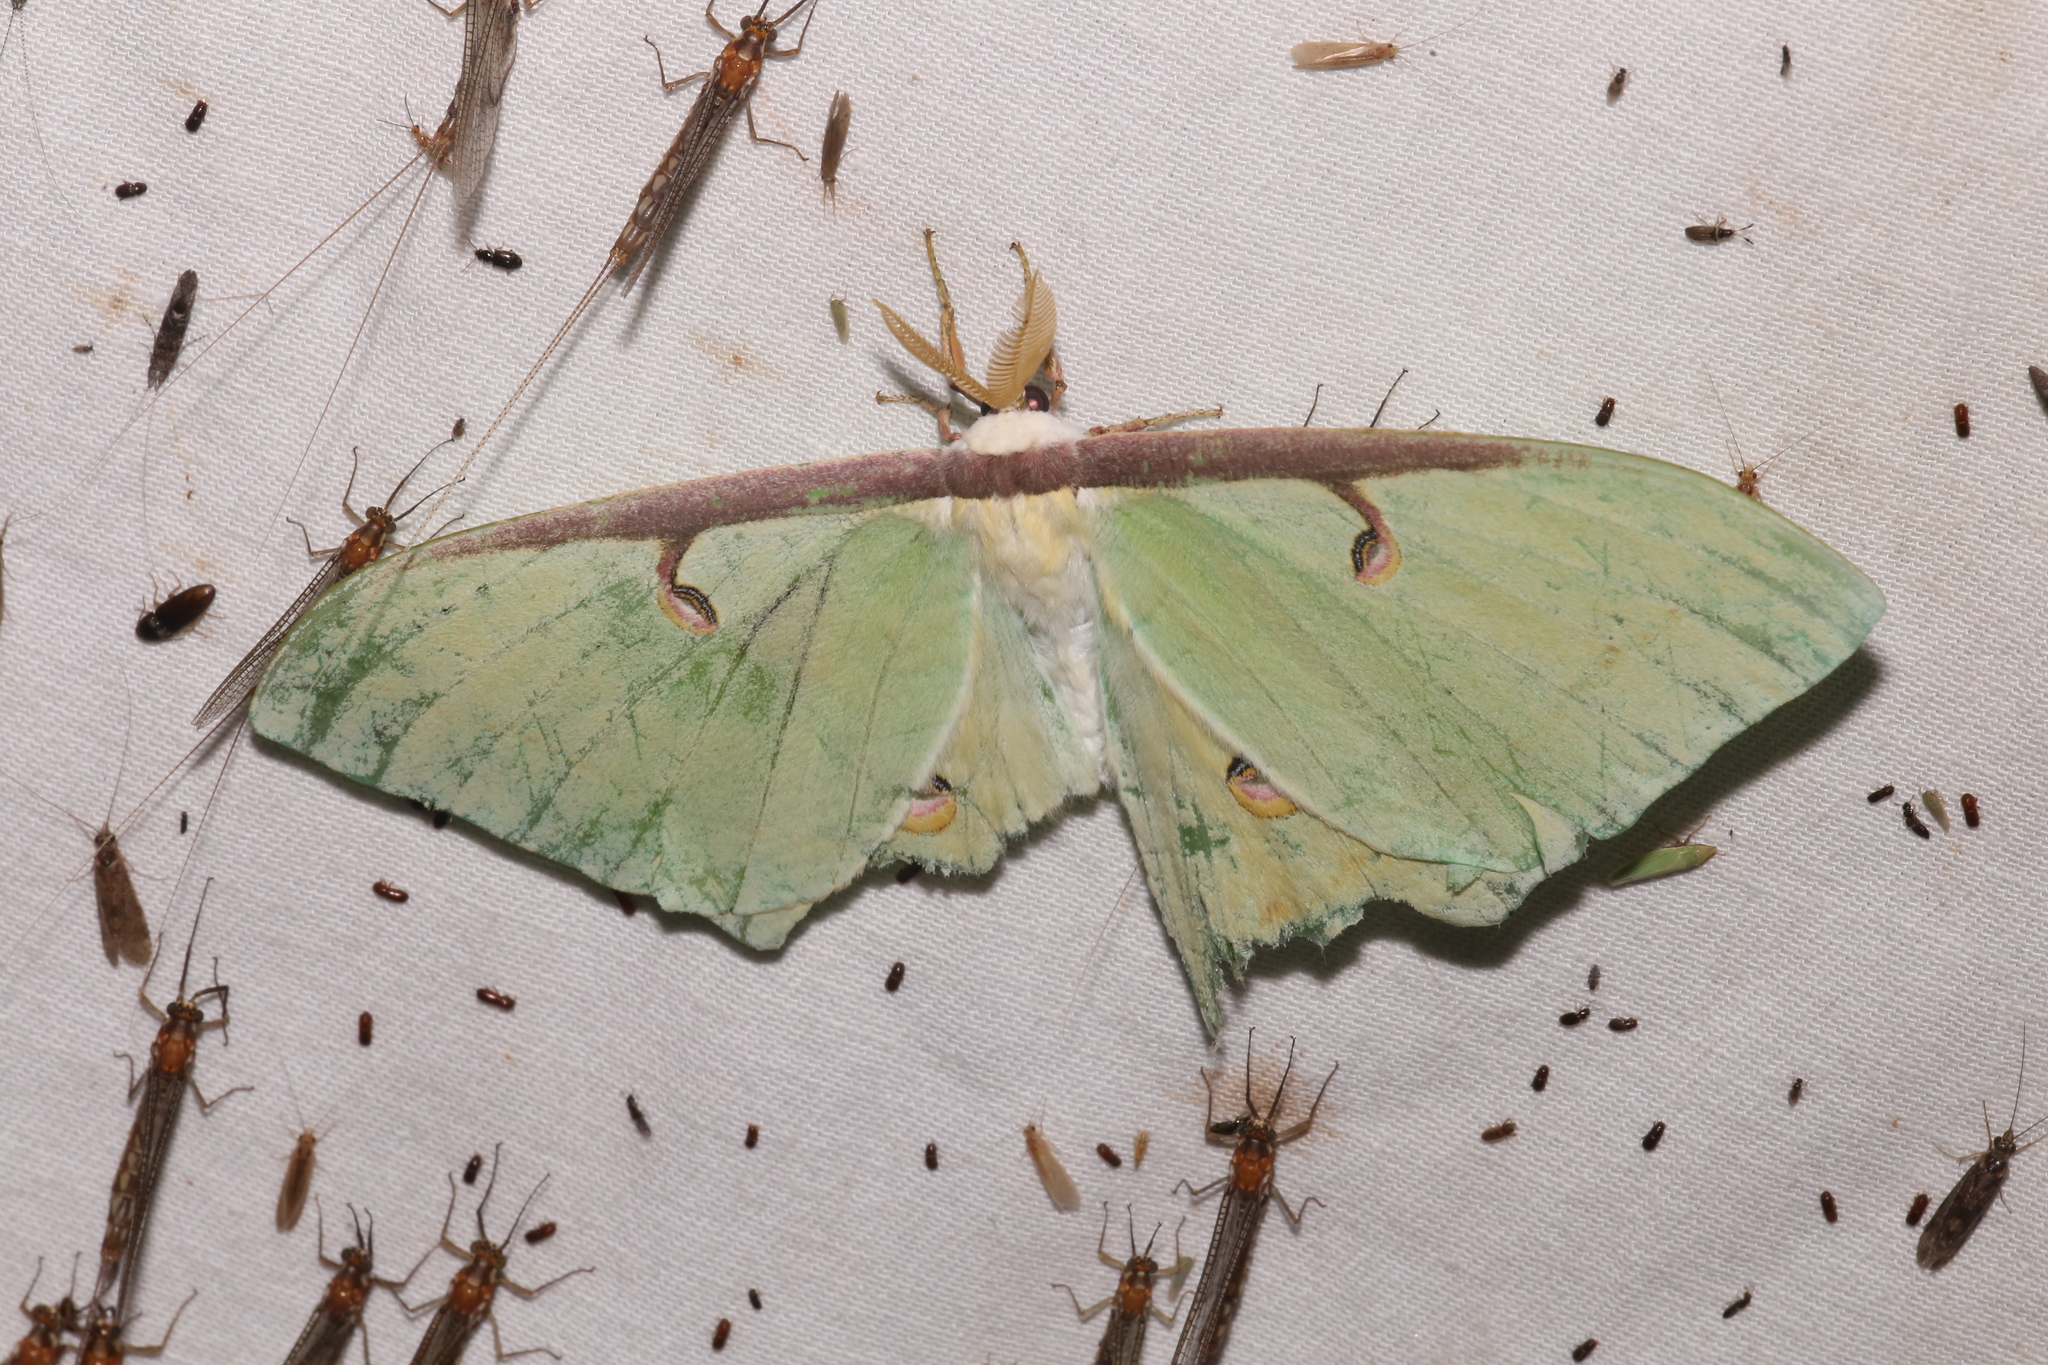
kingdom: Animalia
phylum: Arthropoda
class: Insecta
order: Lepidoptera
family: Saturniidae
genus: Actias
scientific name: Actias luna
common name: Luna moth
